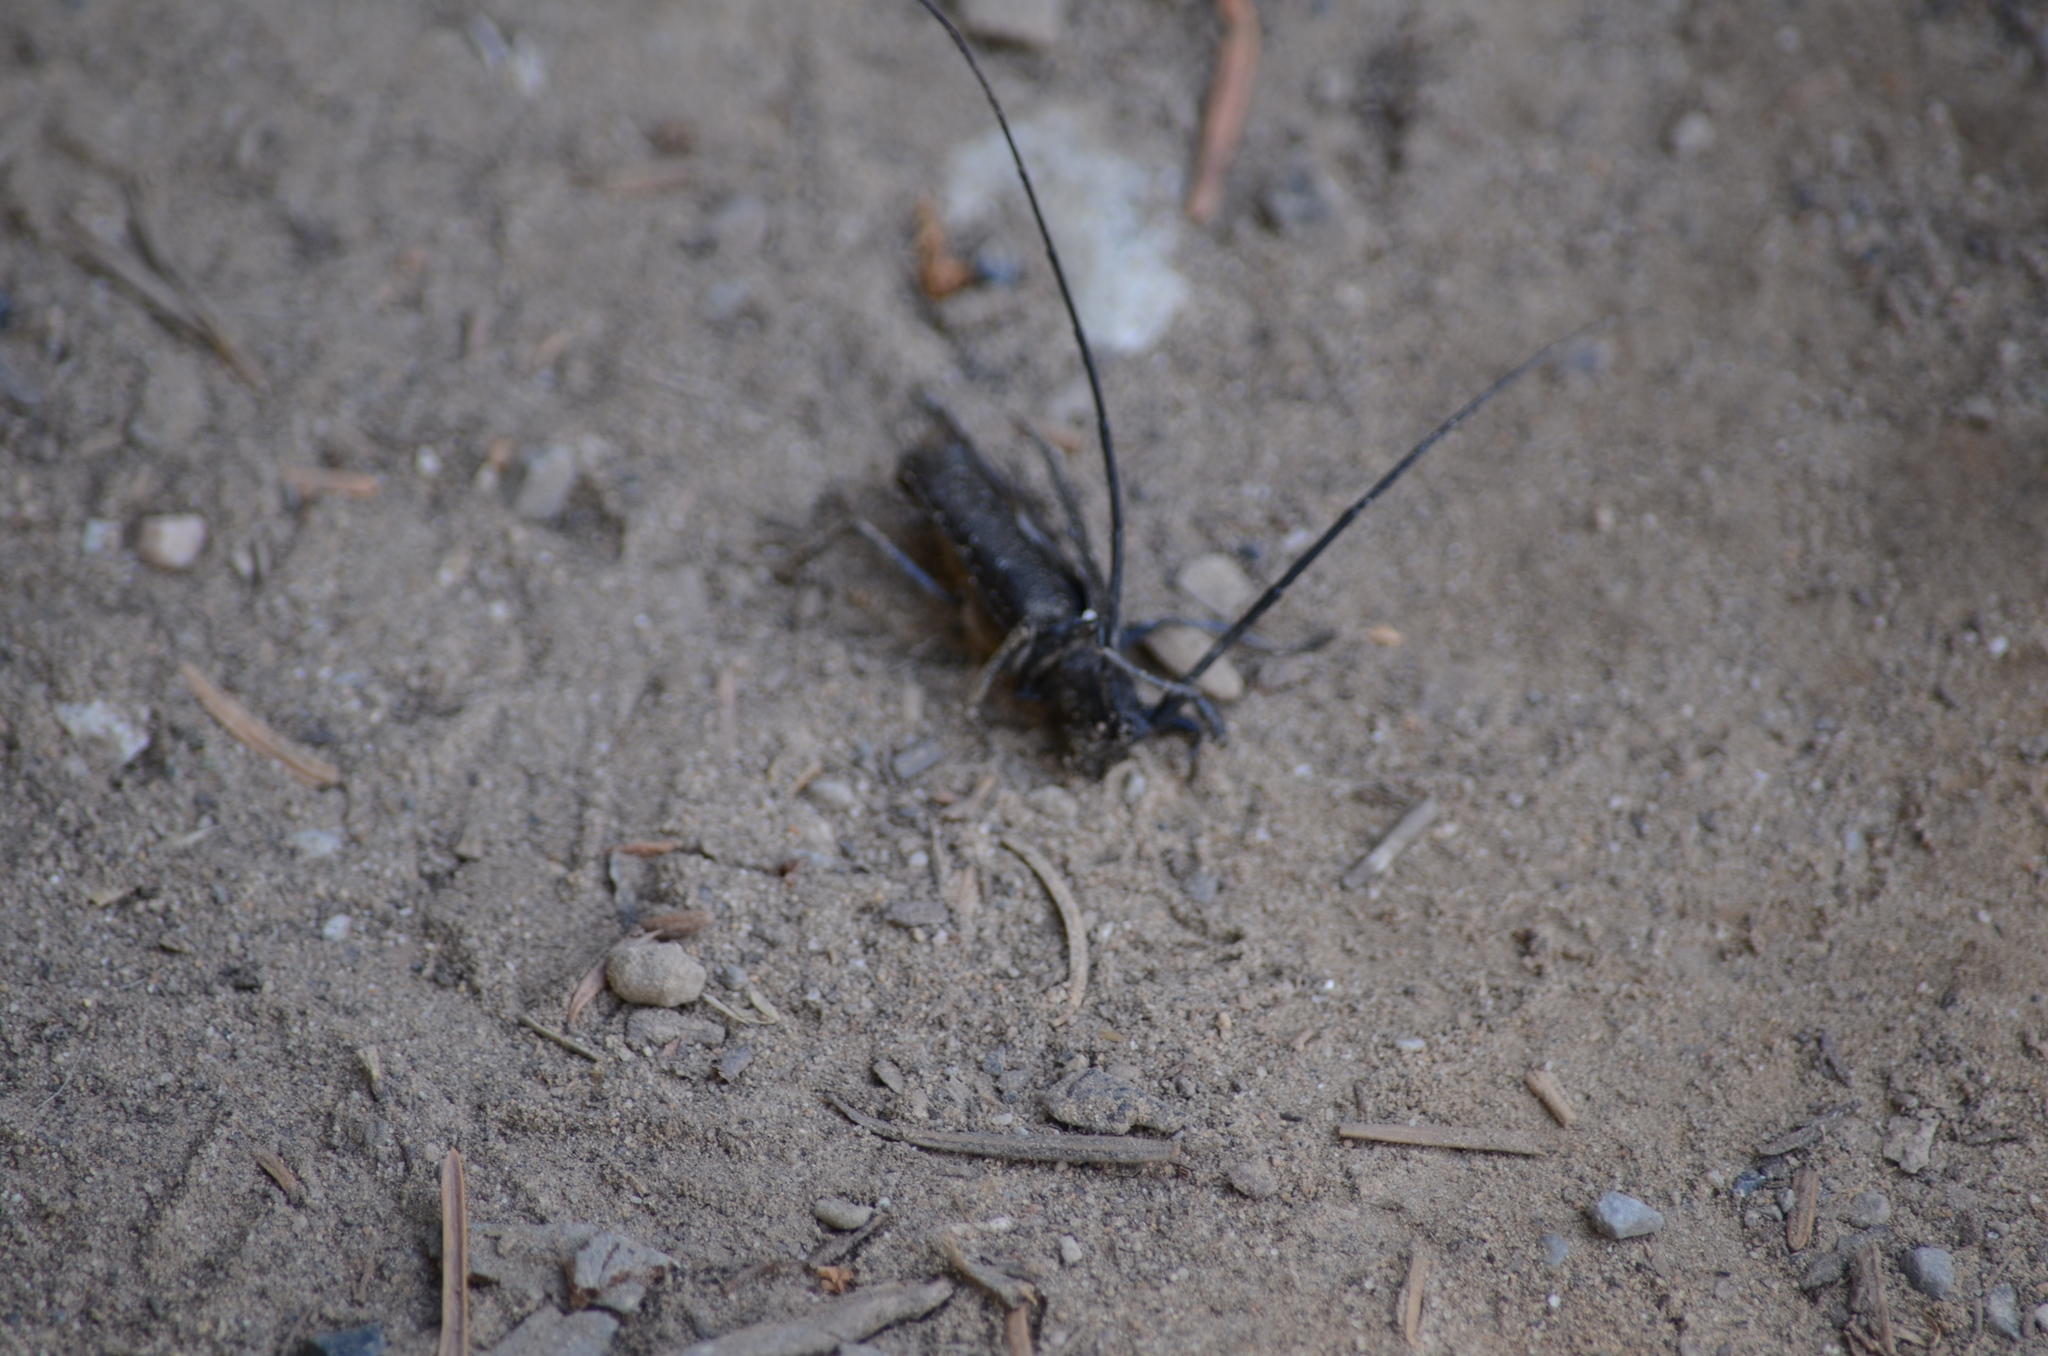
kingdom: Animalia
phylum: Arthropoda
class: Insecta
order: Coleoptera
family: Cerambycidae
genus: Monochamus
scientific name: Monochamus scutellatus
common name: White-spotted sawyer beetle
